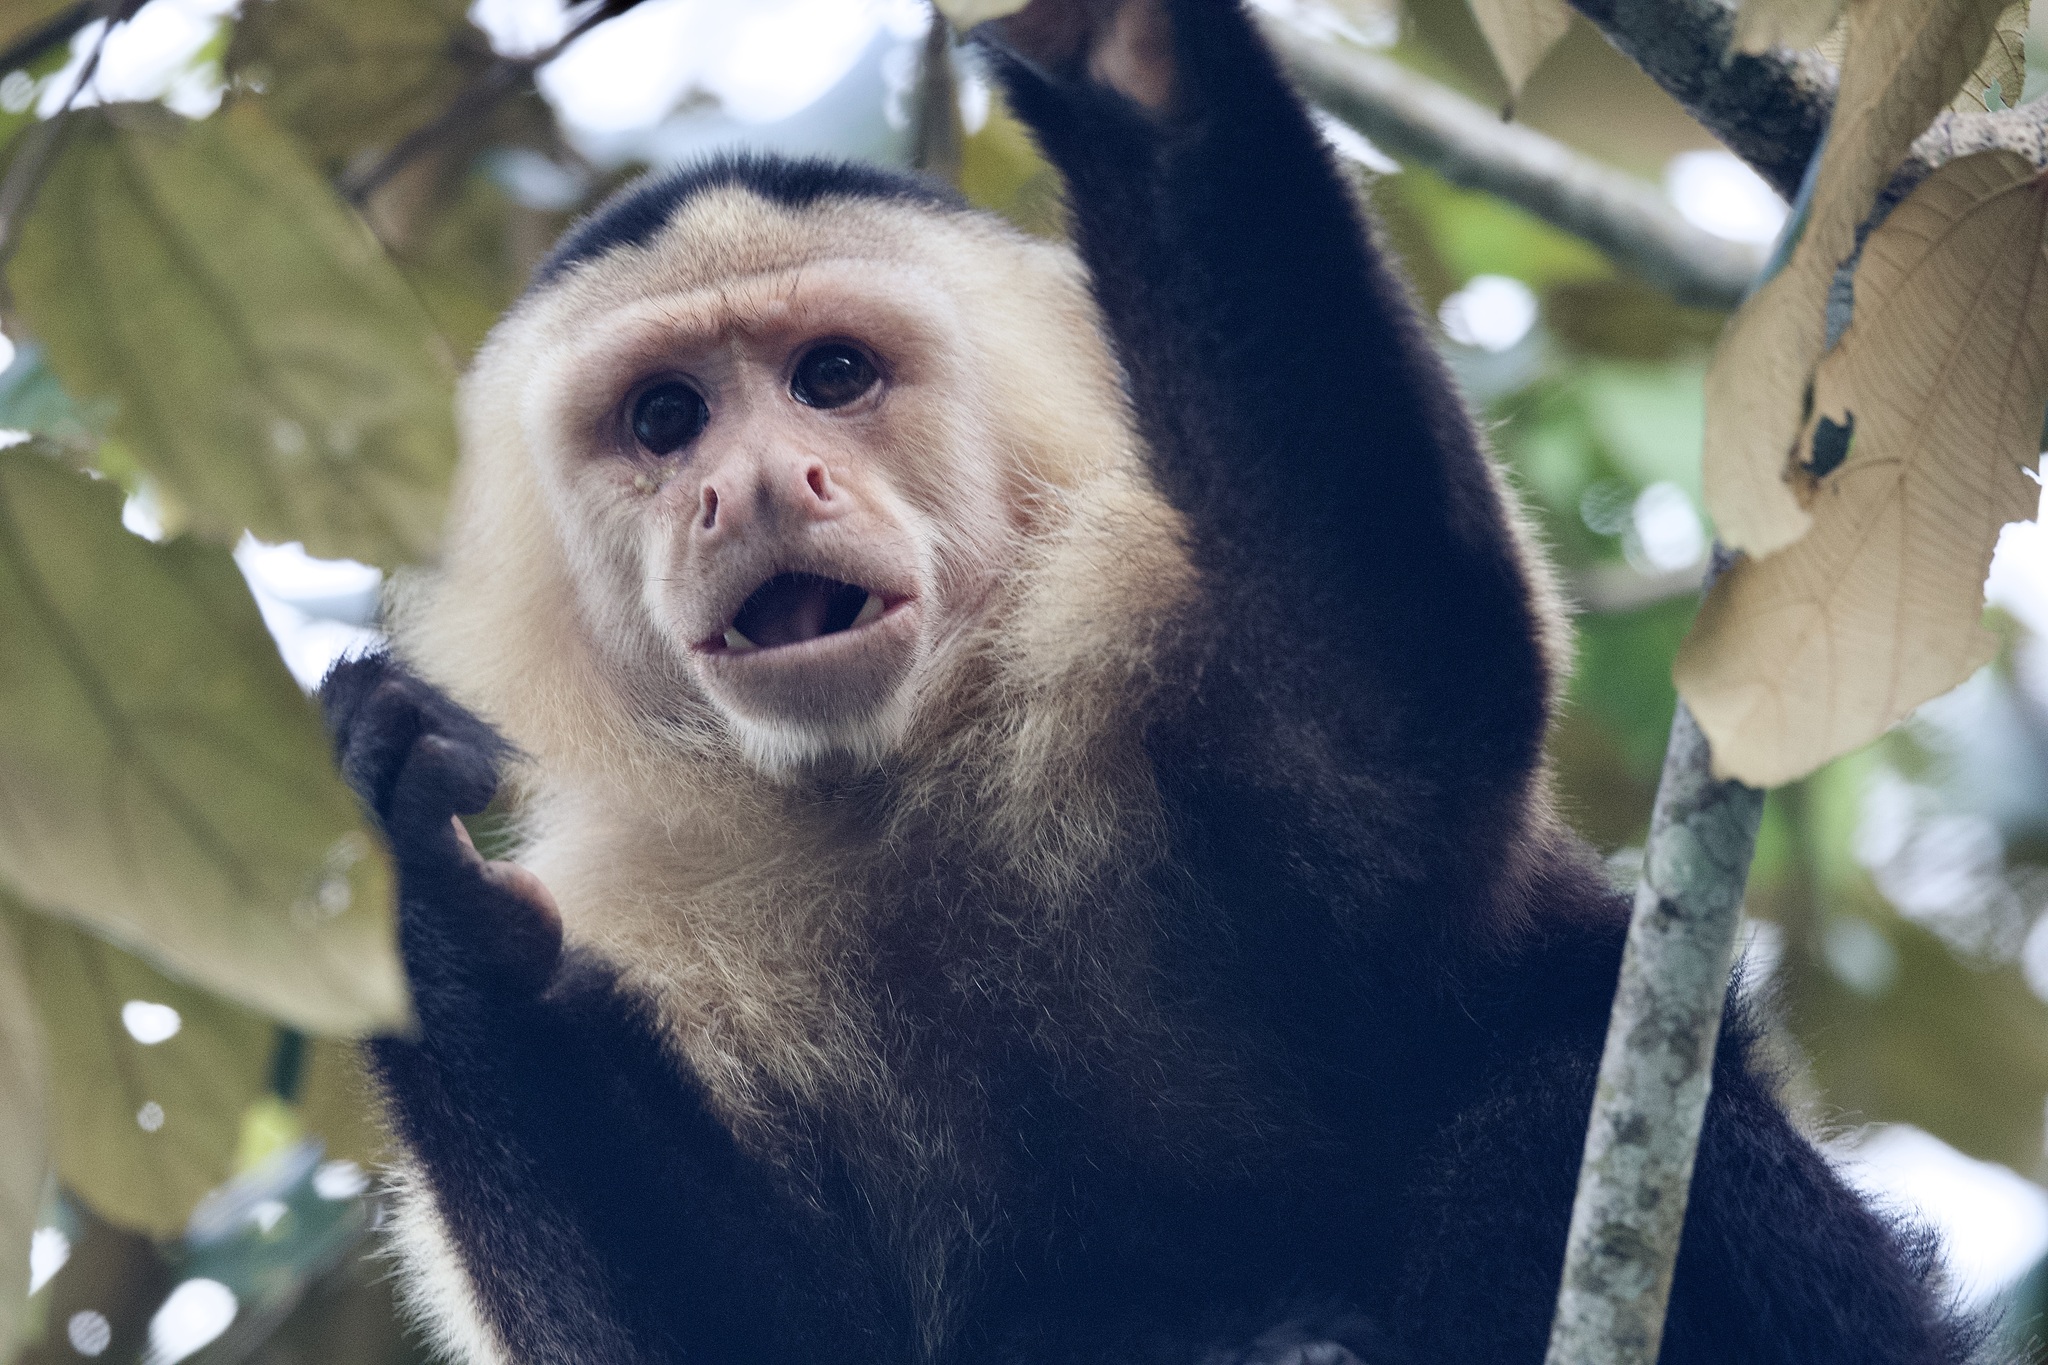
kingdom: Animalia
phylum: Chordata
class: Mammalia
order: Primates
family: Cebidae
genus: Cebus
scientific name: Cebus imitator
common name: Panamanian white-faced capuchin
